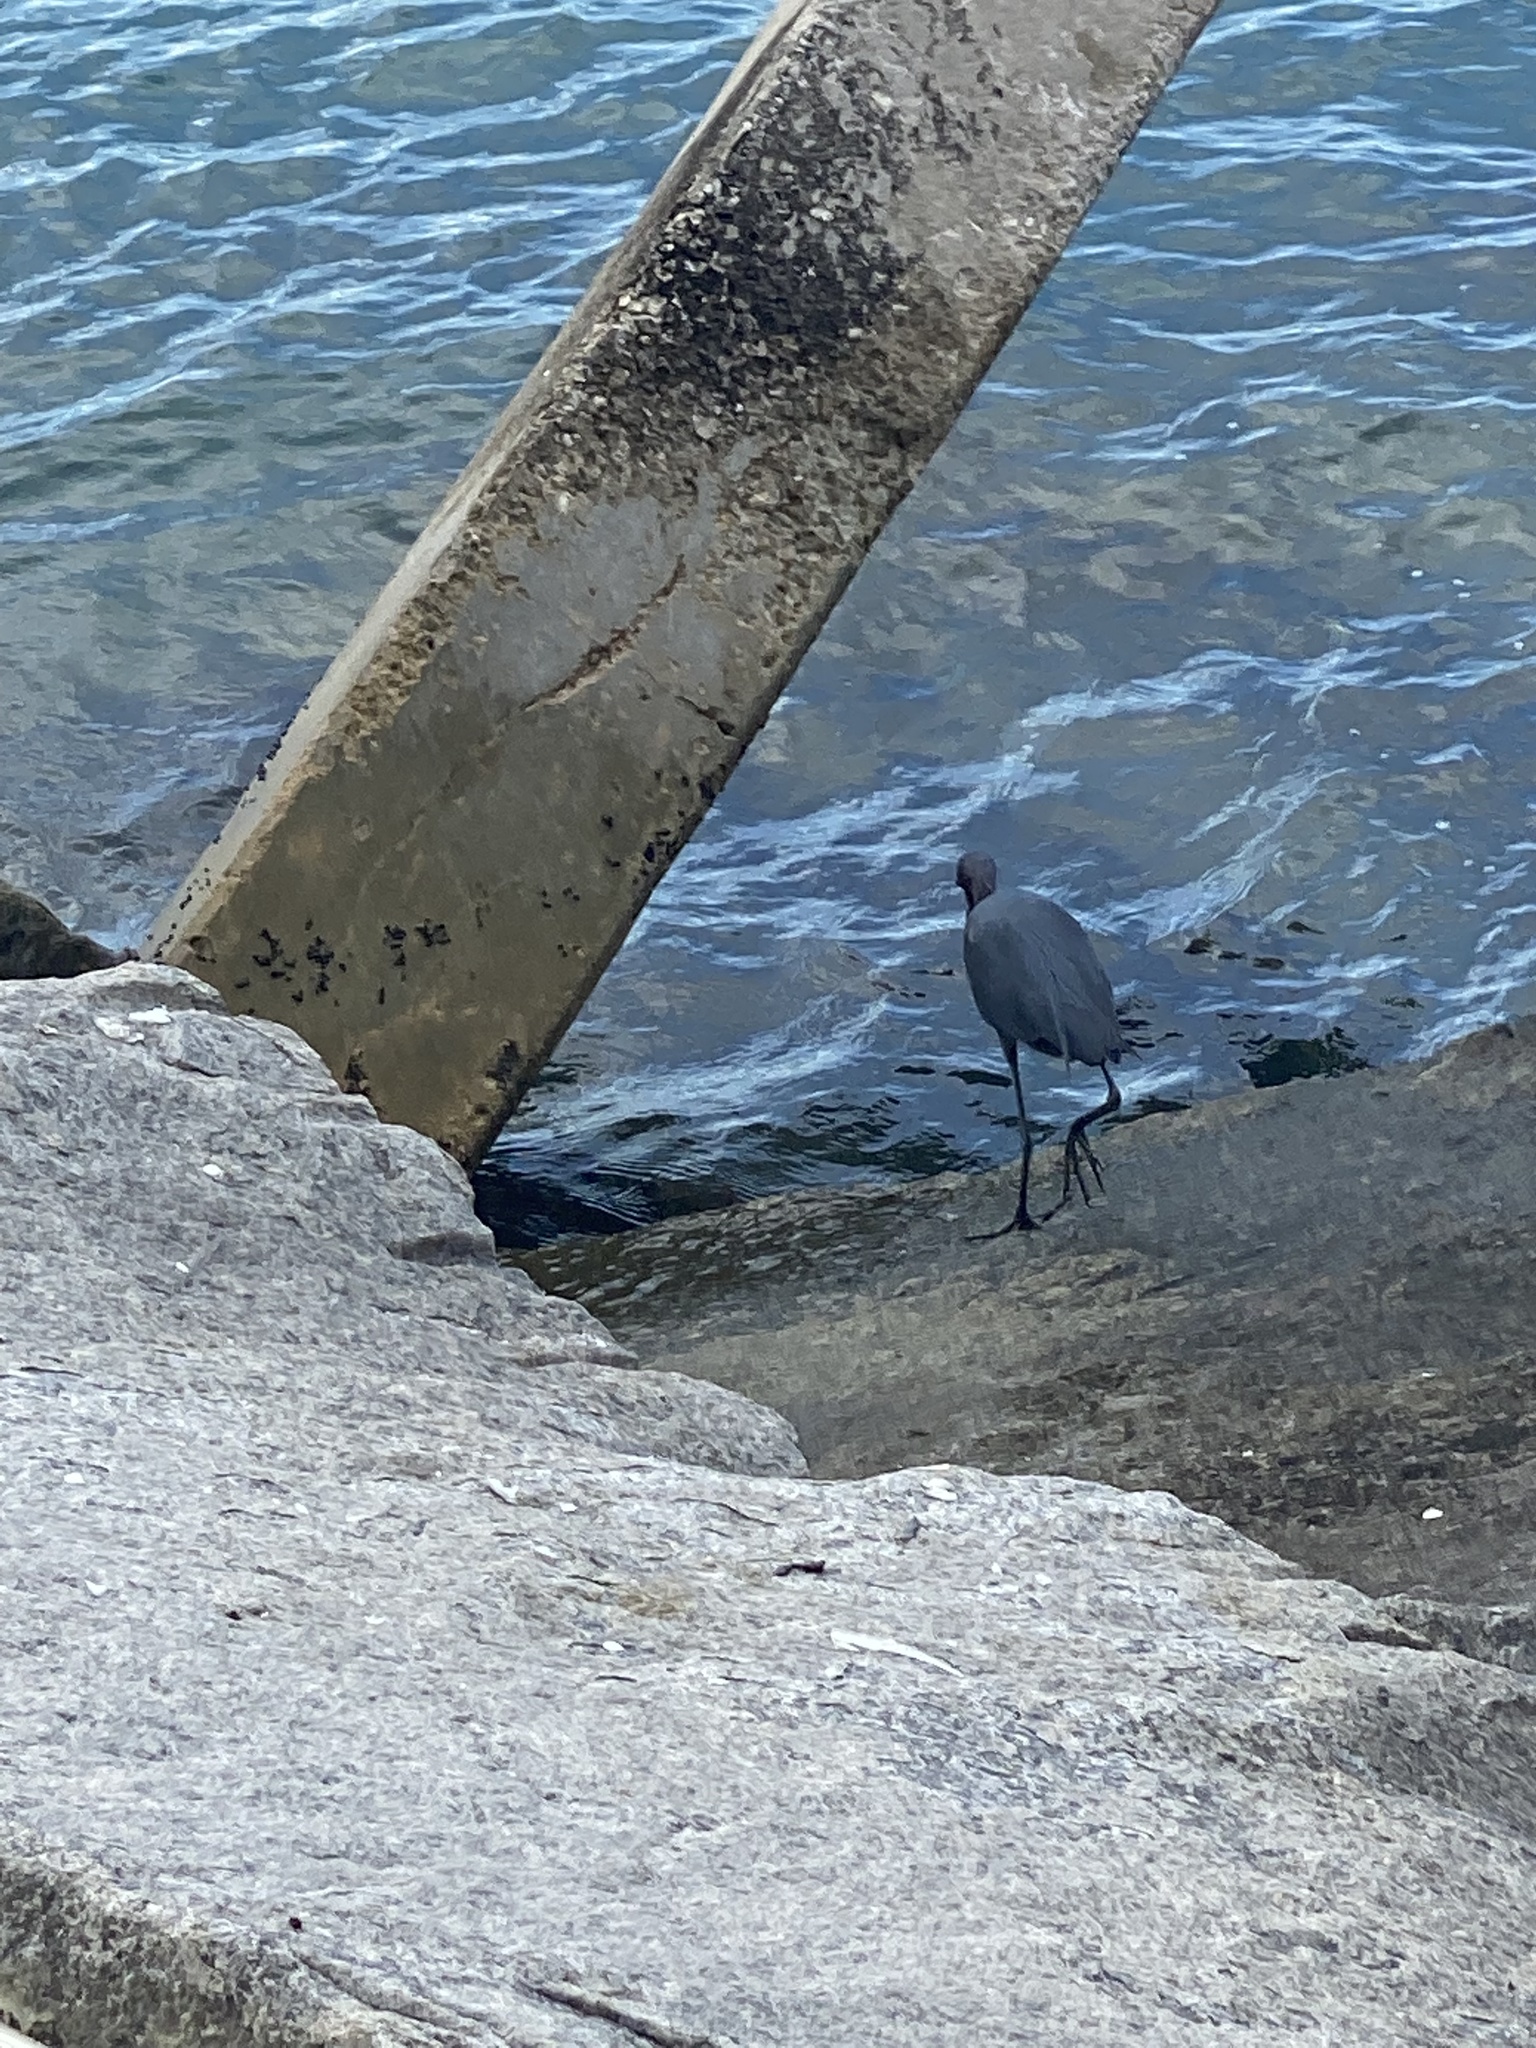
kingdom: Animalia
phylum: Chordata
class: Aves
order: Pelecaniformes
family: Ardeidae
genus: Egretta
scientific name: Egretta caerulea
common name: Little blue heron
